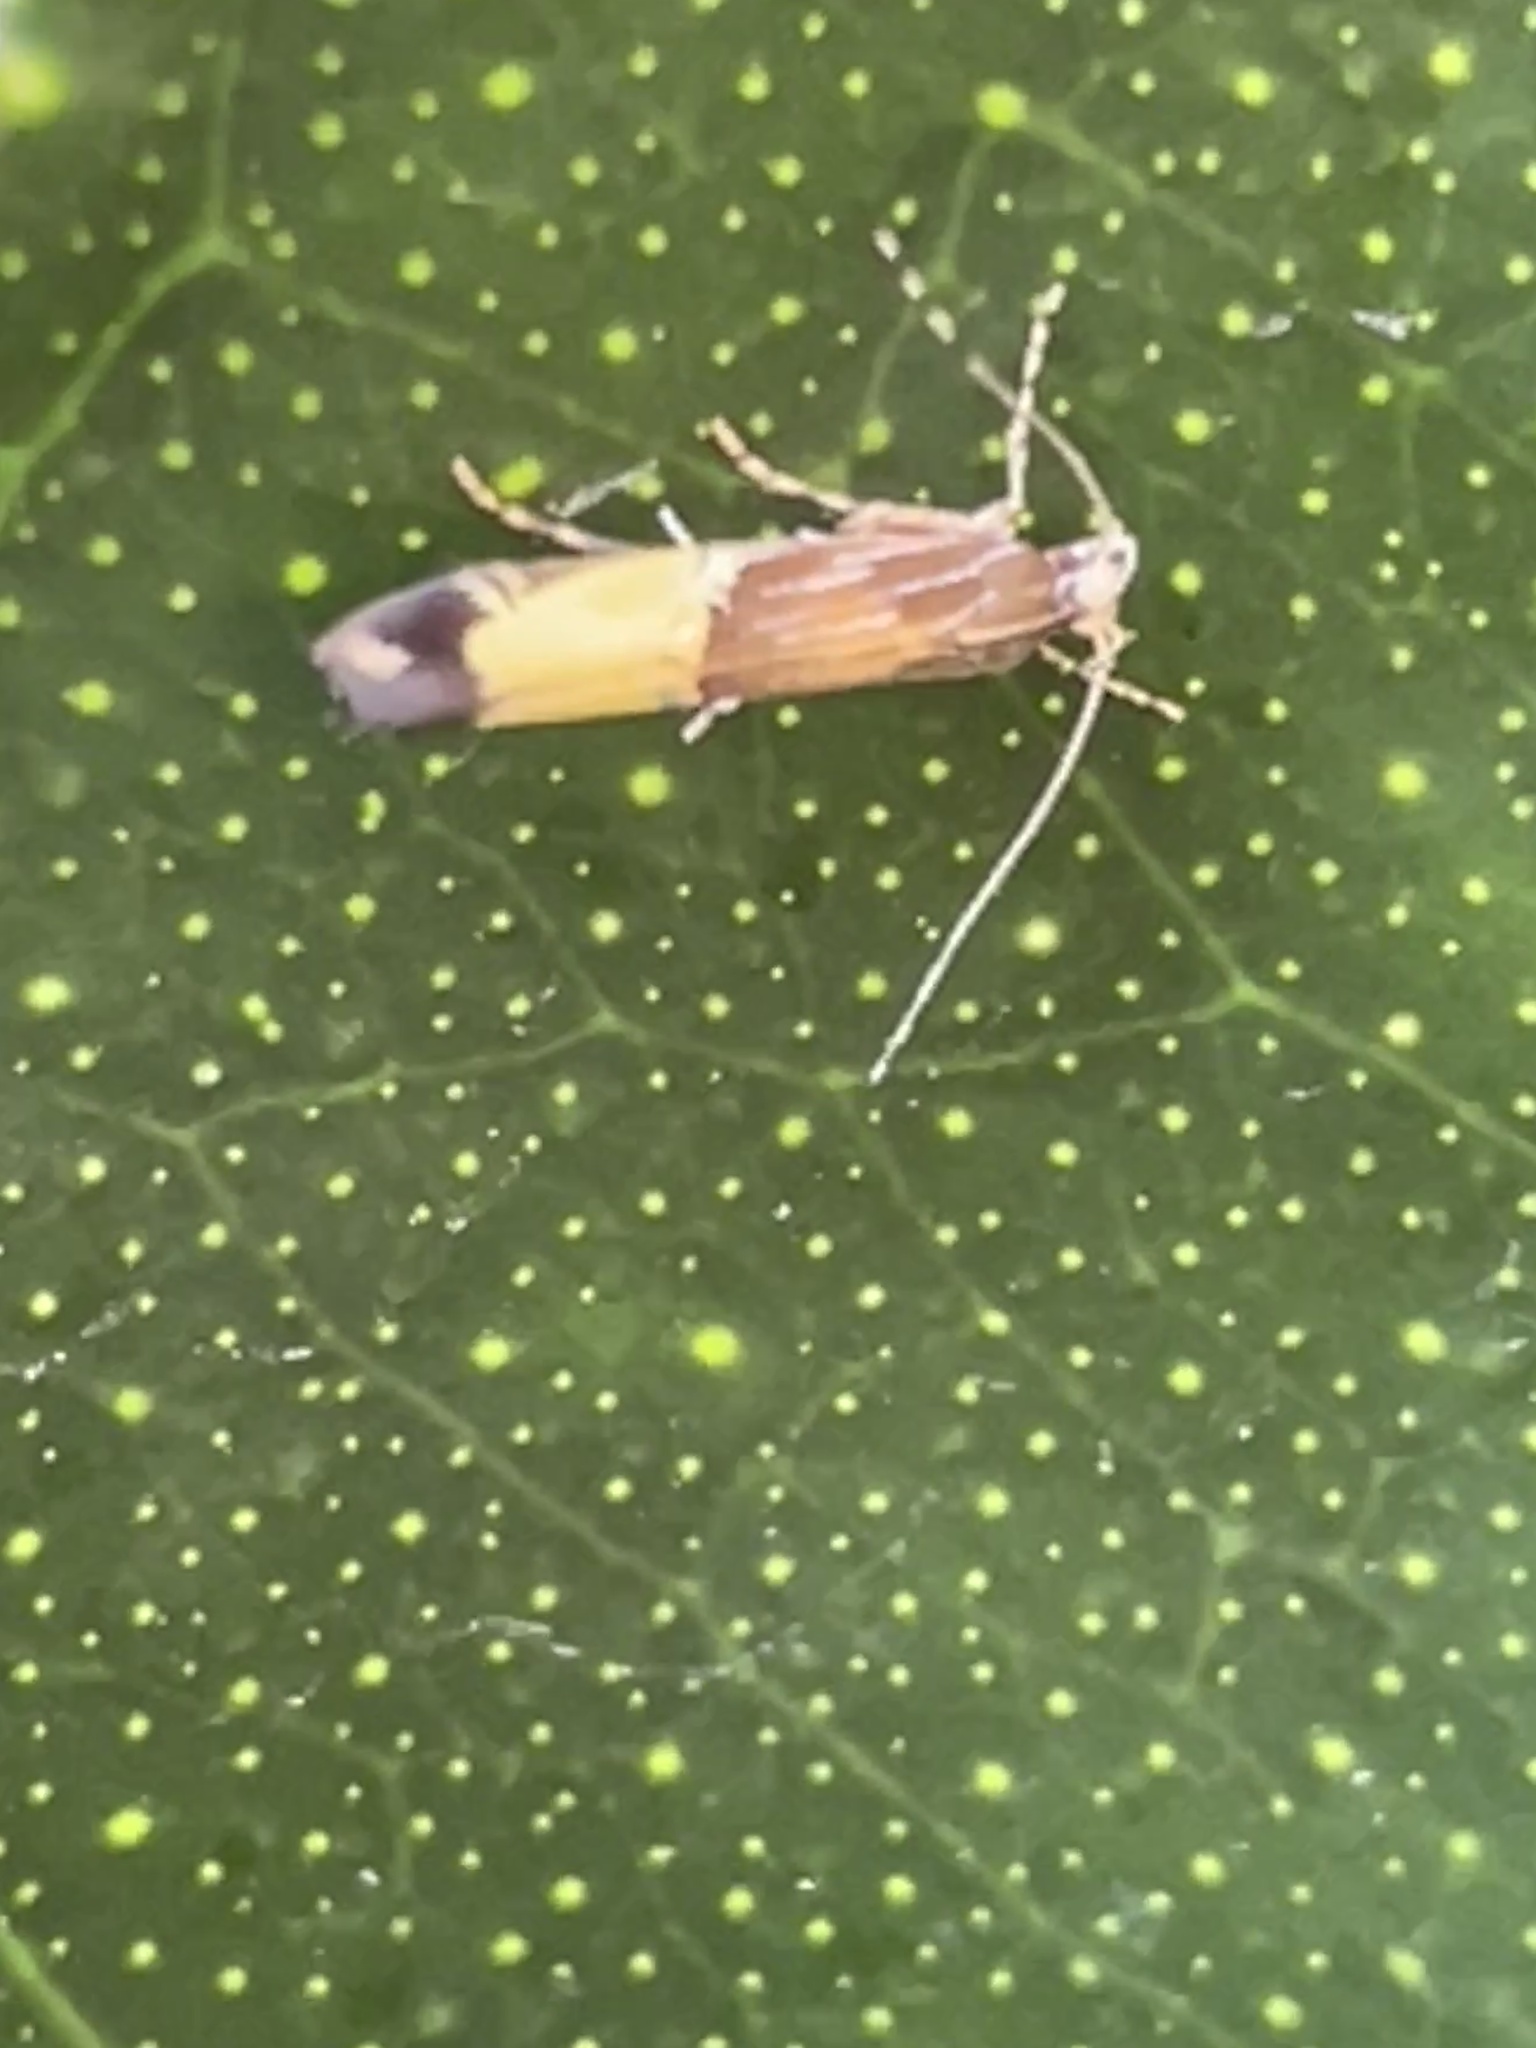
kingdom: Animalia
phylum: Arthropoda
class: Insecta
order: Lepidoptera
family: Cosmopterigidae
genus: Labdia
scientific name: Labdia deliciosella
